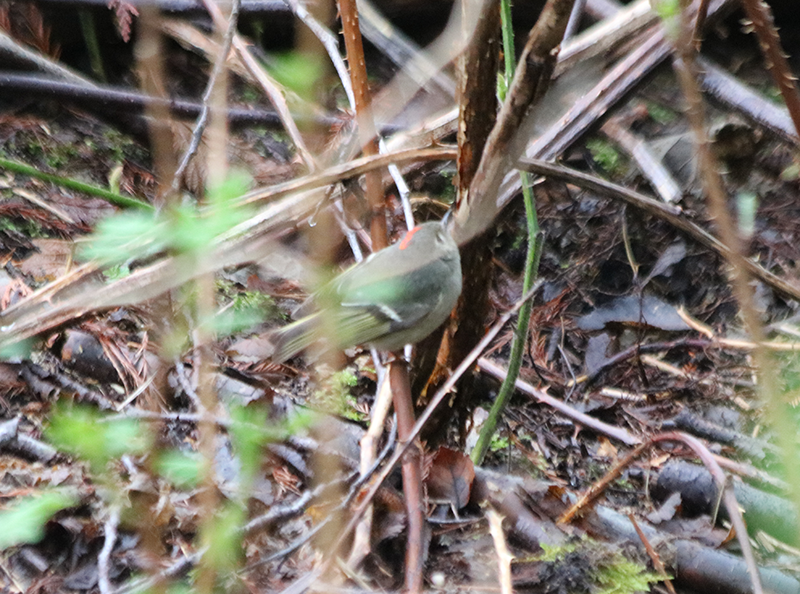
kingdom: Animalia
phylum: Chordata
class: Aves
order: Passeriformes
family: Regulidae
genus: Regulus
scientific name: Regulus calendula
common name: Ruby-crowned kinglet
